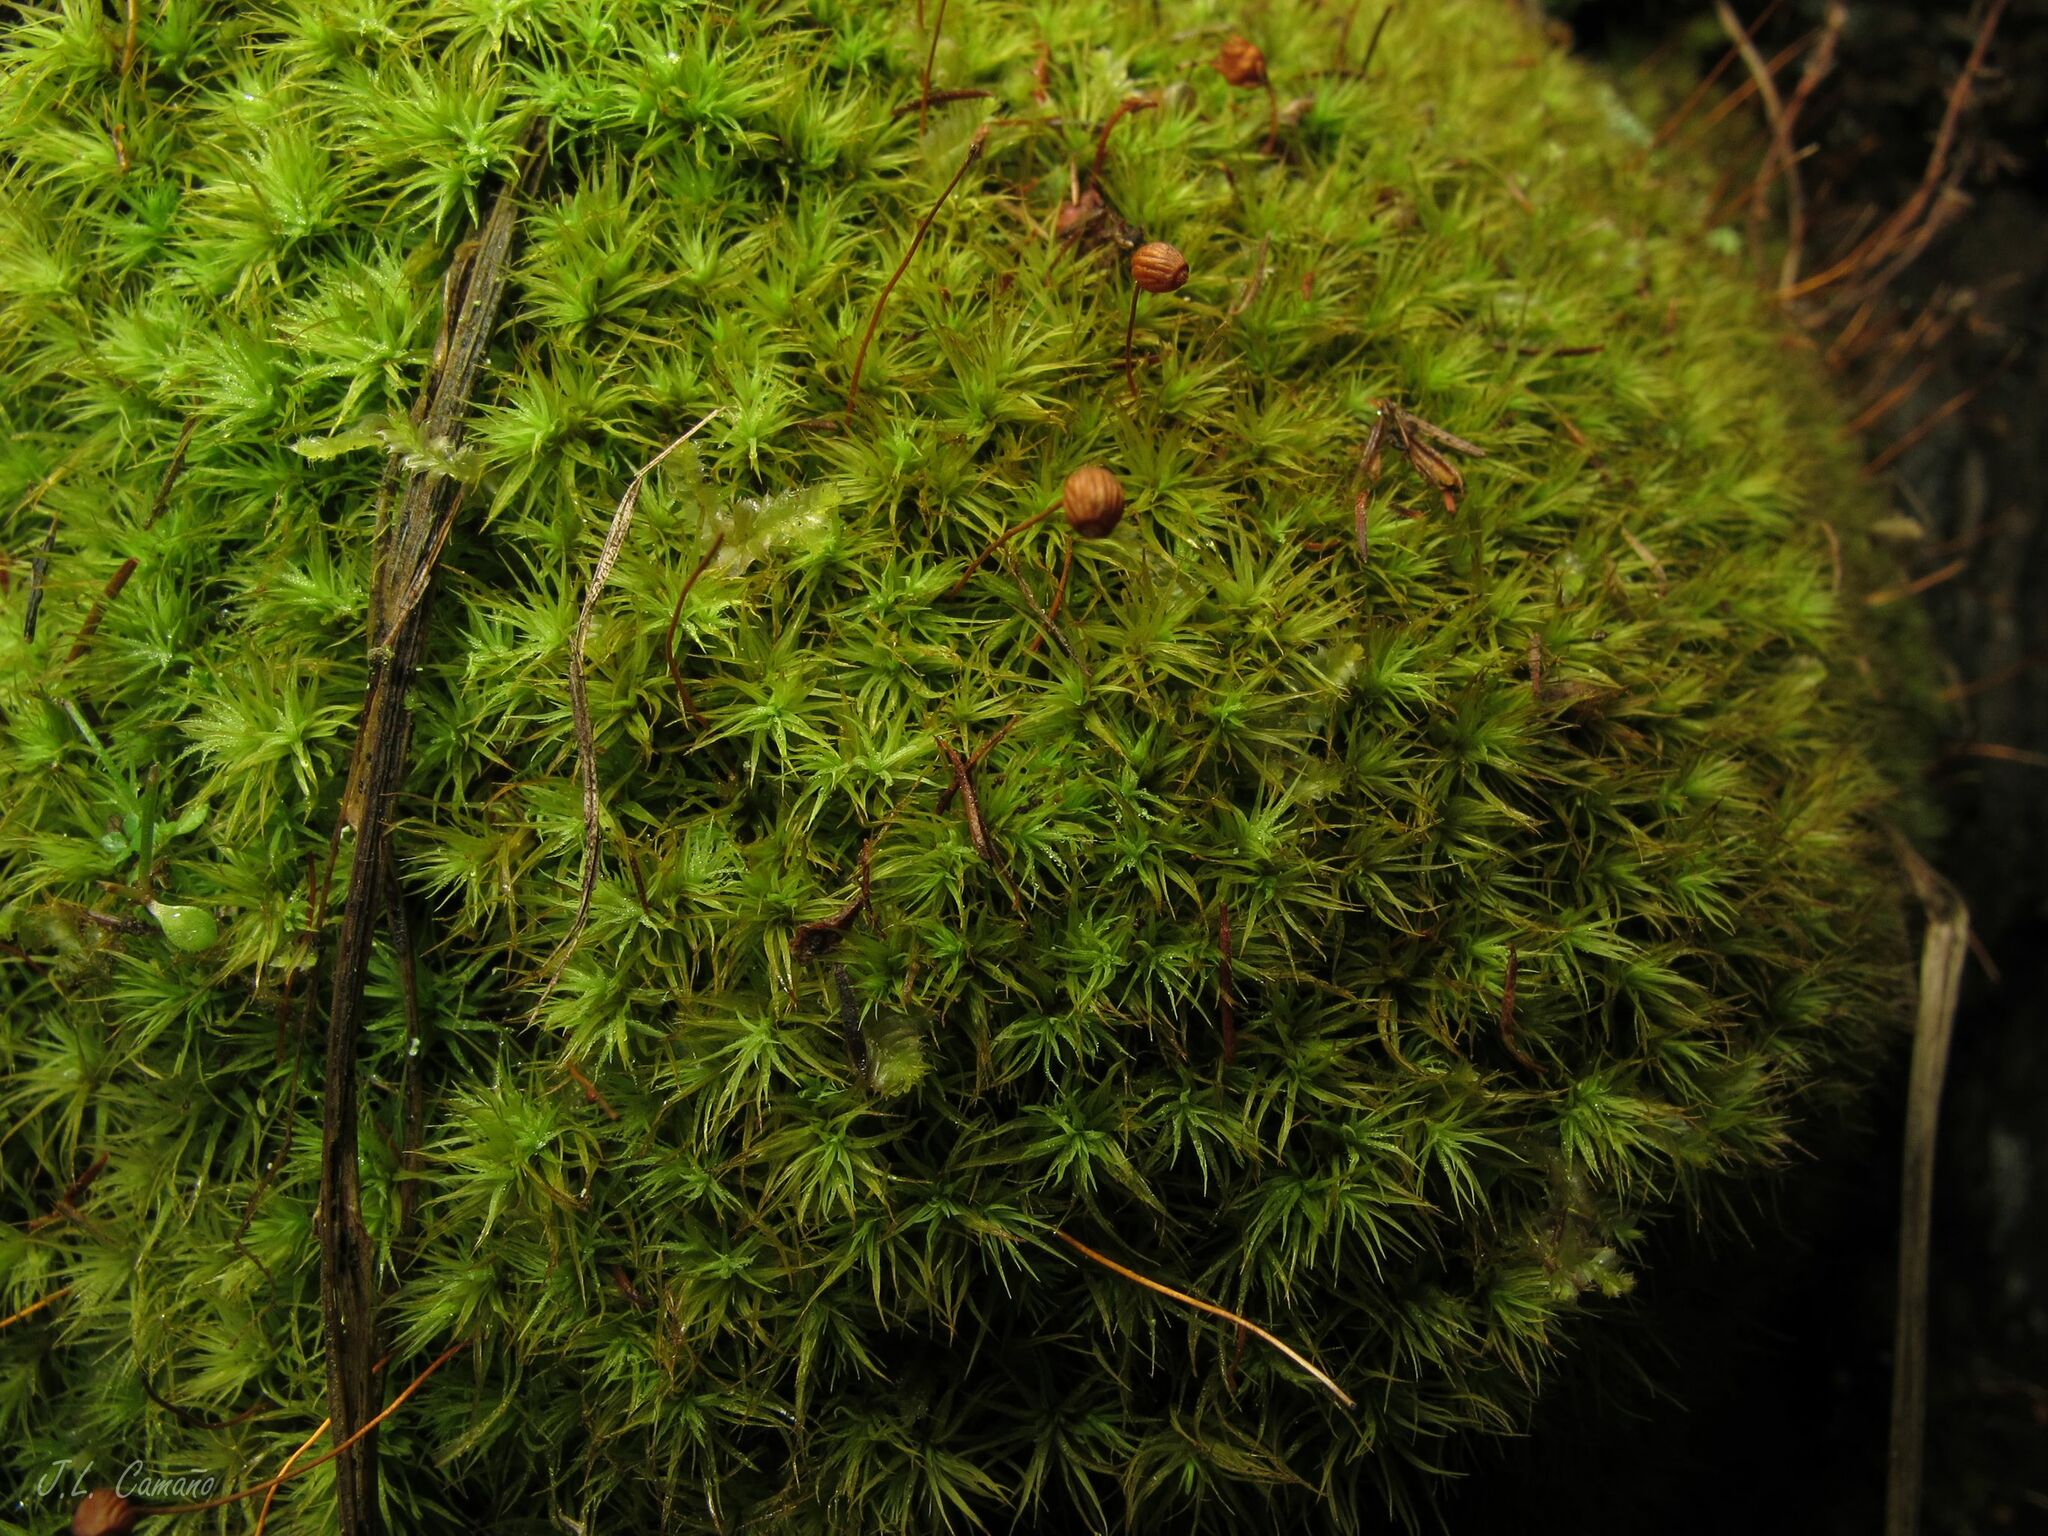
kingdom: Plantae
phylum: Bryophyta
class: Bryopsida
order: Bartramiales
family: Bartramiaceae
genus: Bartramia
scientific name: Bartramia ithyphylla
